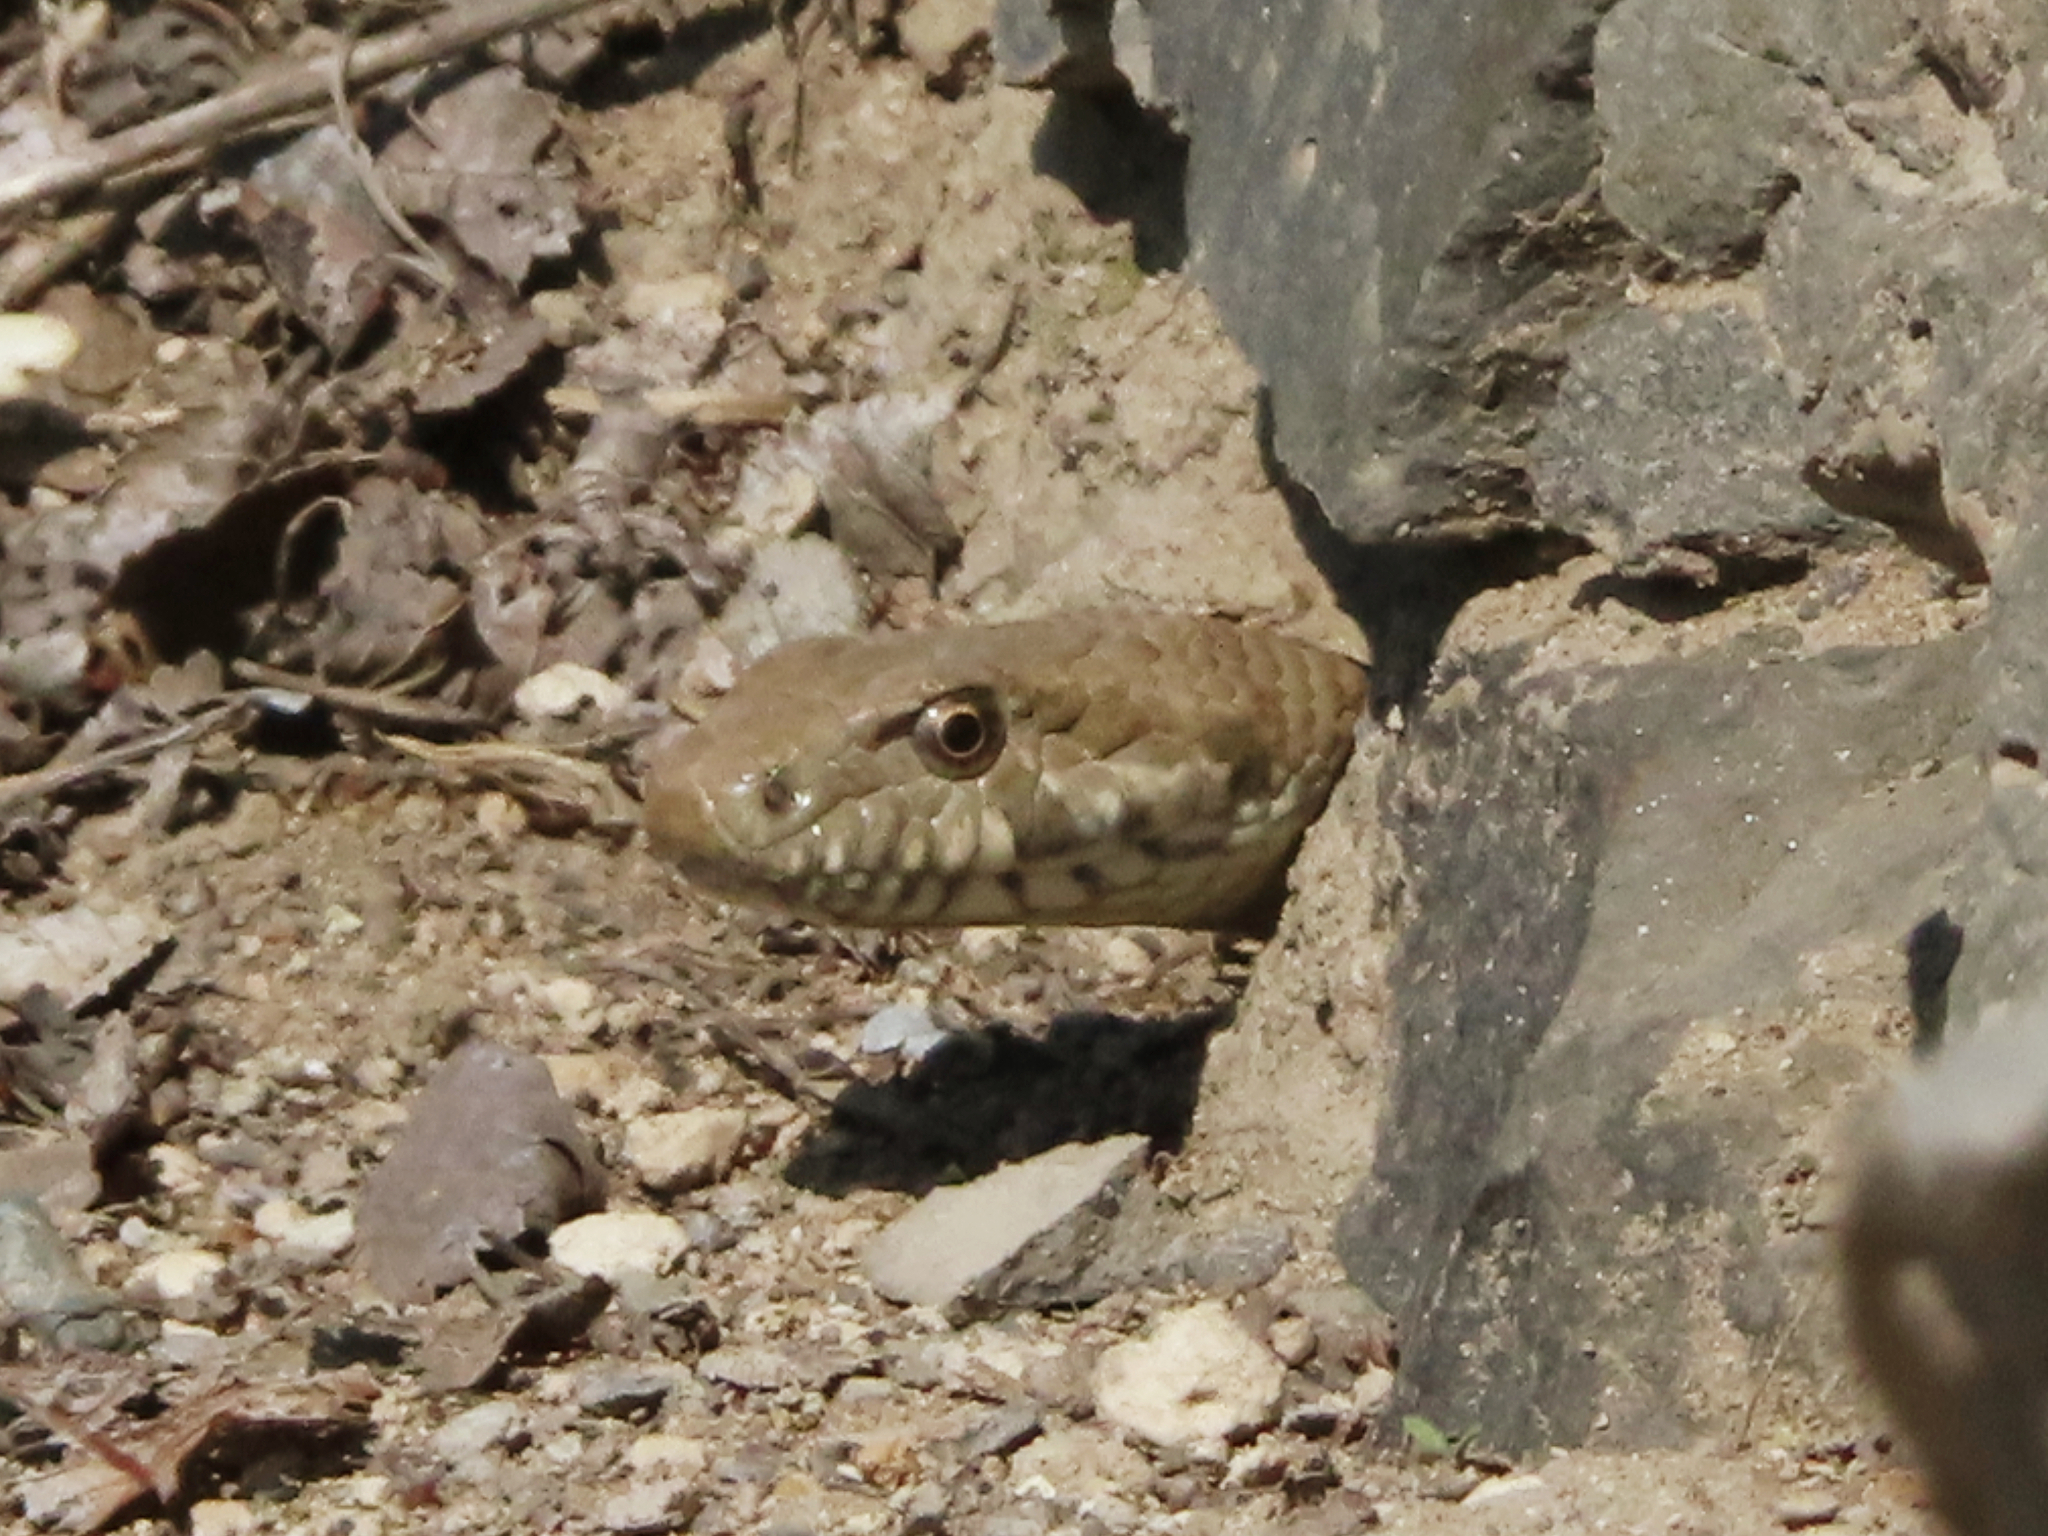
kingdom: Animalia
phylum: Chordata
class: Squamata
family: Colubridae
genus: Hemorrhois
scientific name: Hemorrhois ravergieri
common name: Spotted whip snake
